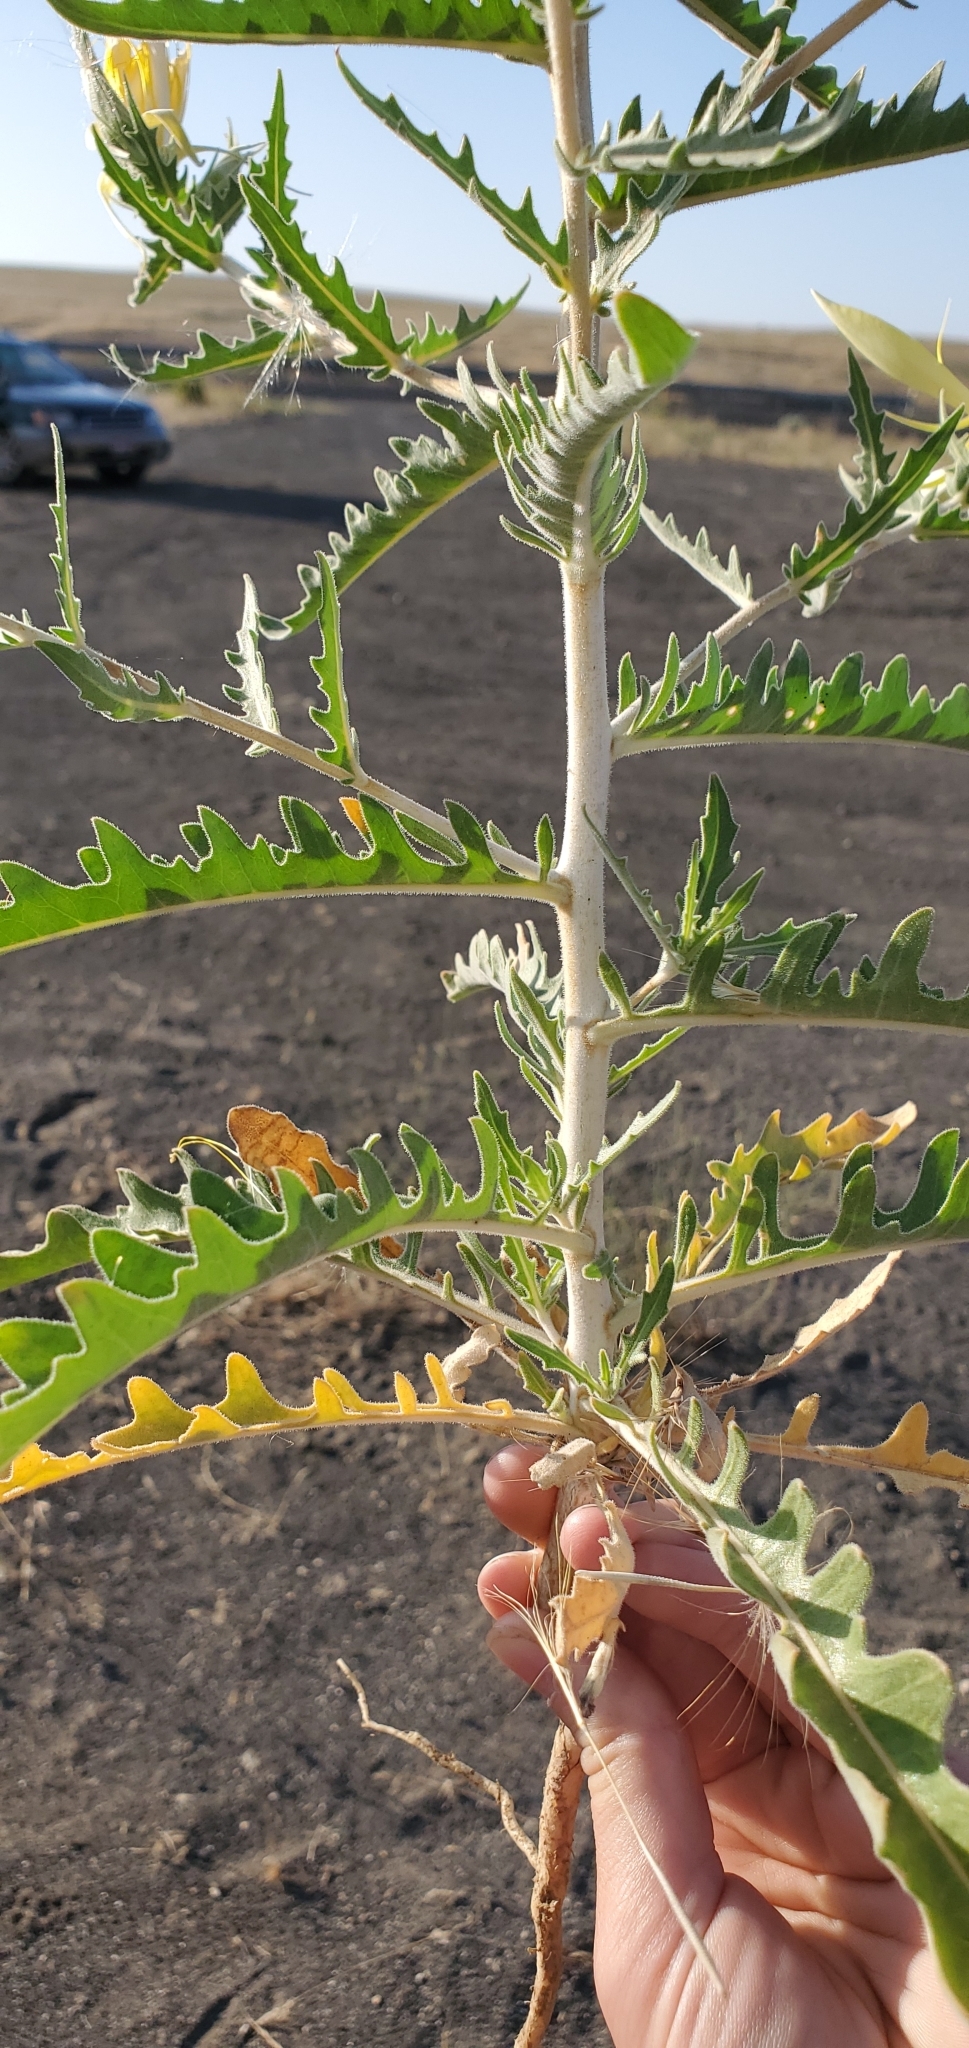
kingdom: Plantae
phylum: Tracheophyta
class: Magnoliopsida
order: Cornales
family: Loasaceae
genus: Mentzelia
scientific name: Mentzelia laevicaulis
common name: Smooth-stem blazingstar
